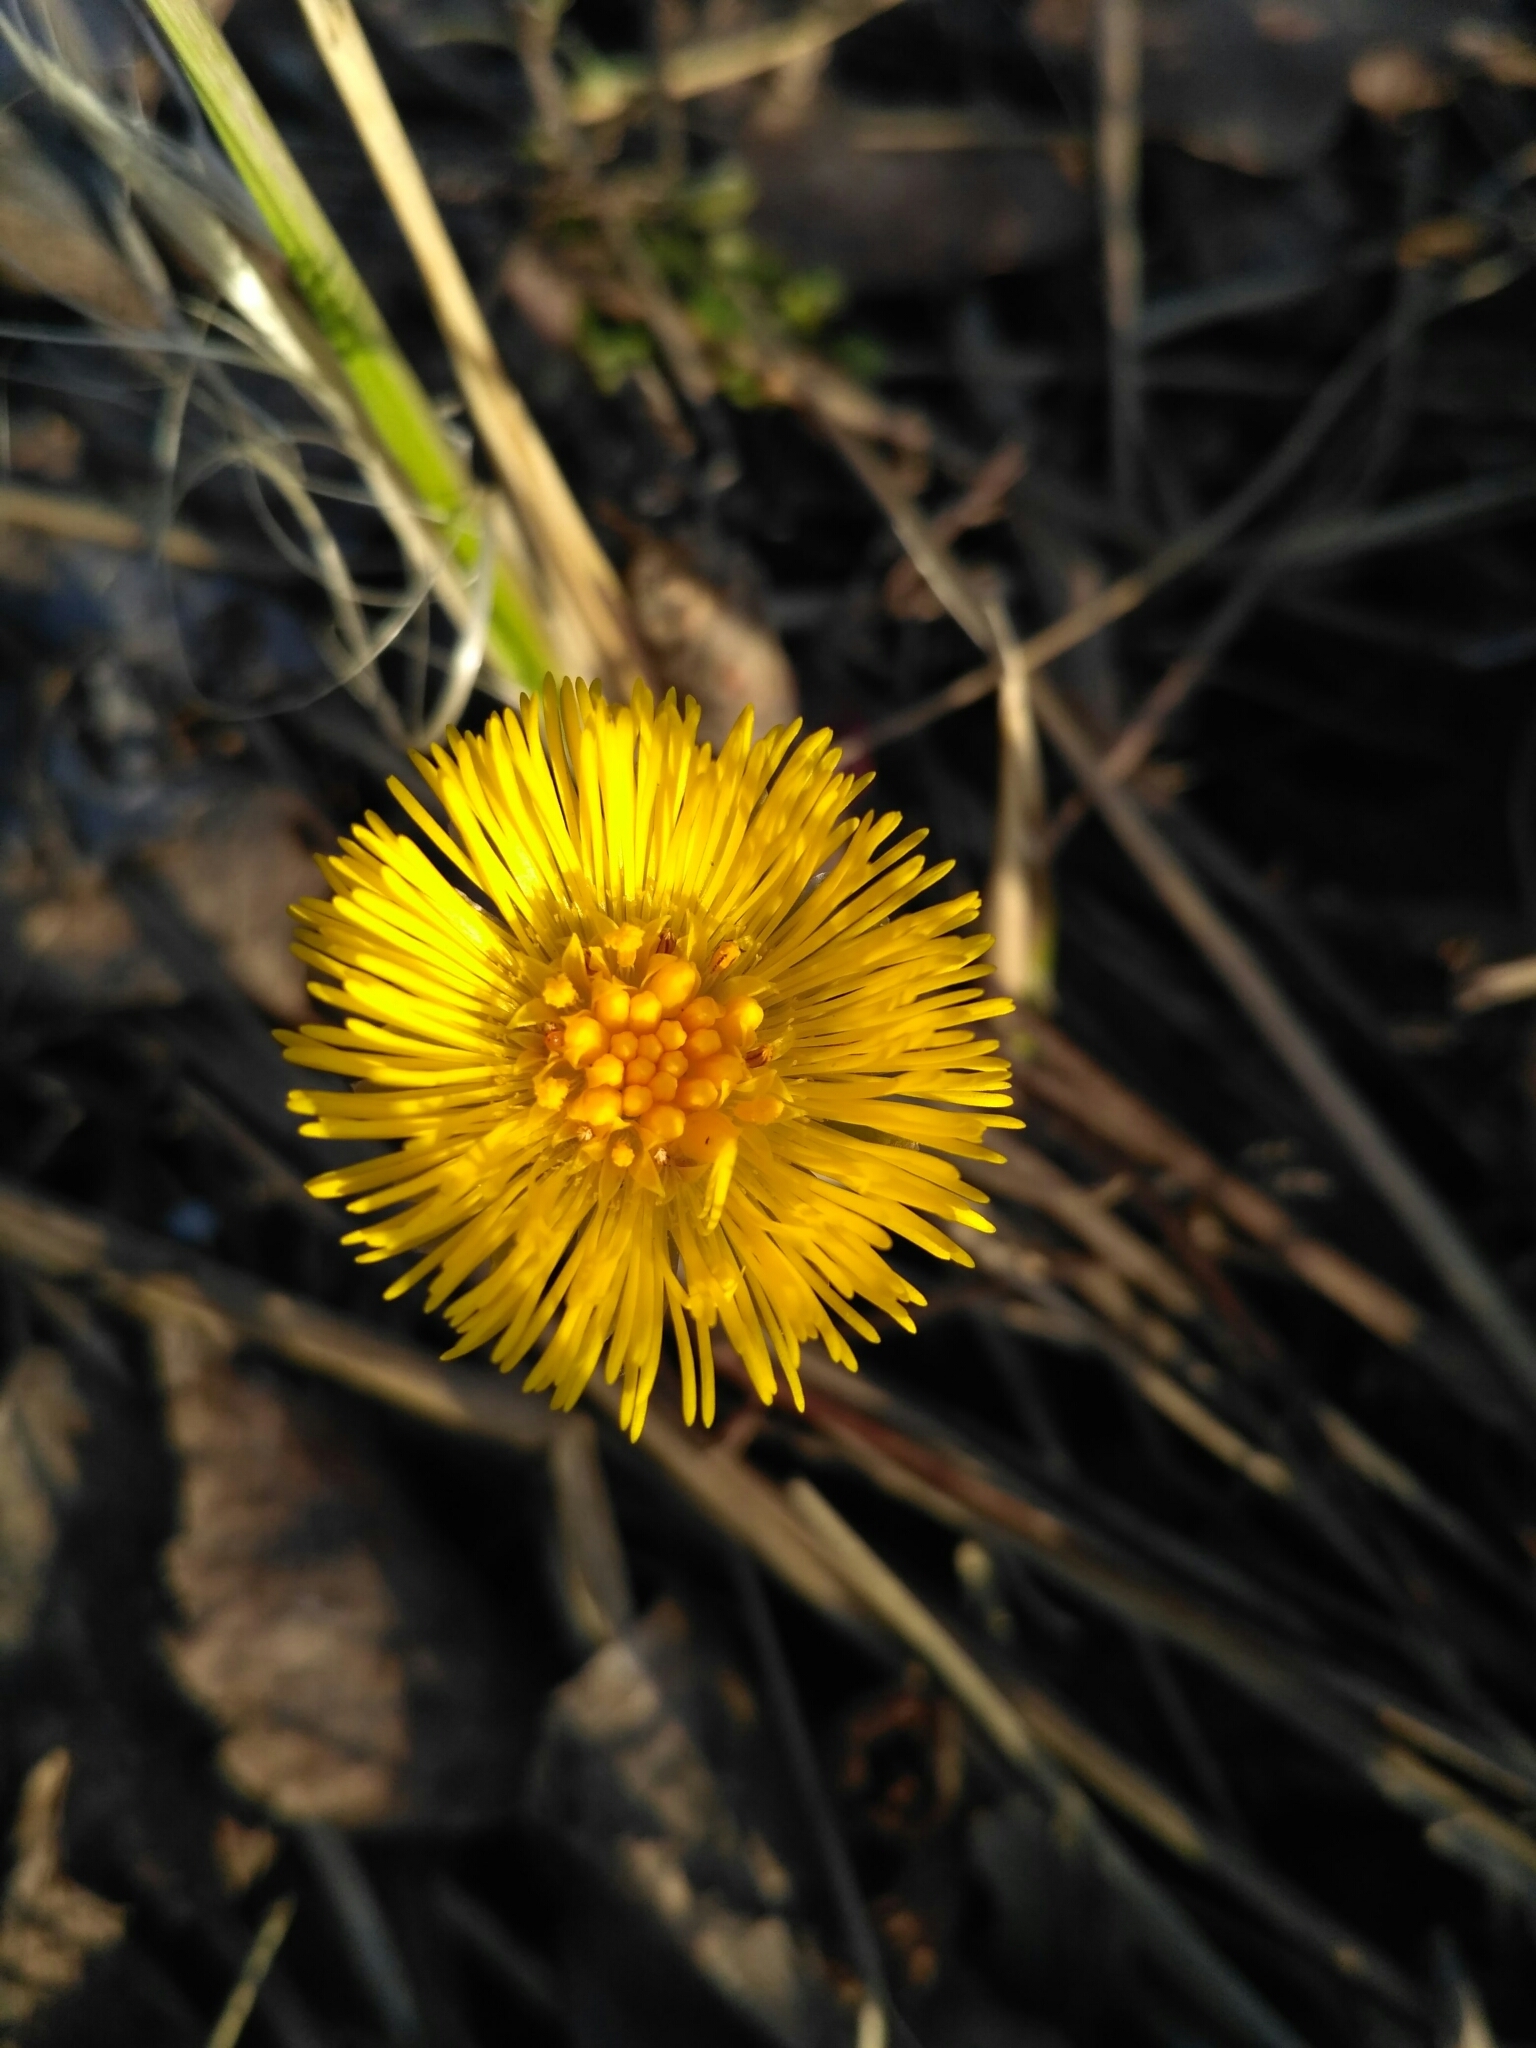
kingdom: Plantae
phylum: Tracheophyta
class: Magnoliopsida
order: Asterales
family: Asteraceae
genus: Tussilago
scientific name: Tussilago farfara
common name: Coltsfoot
